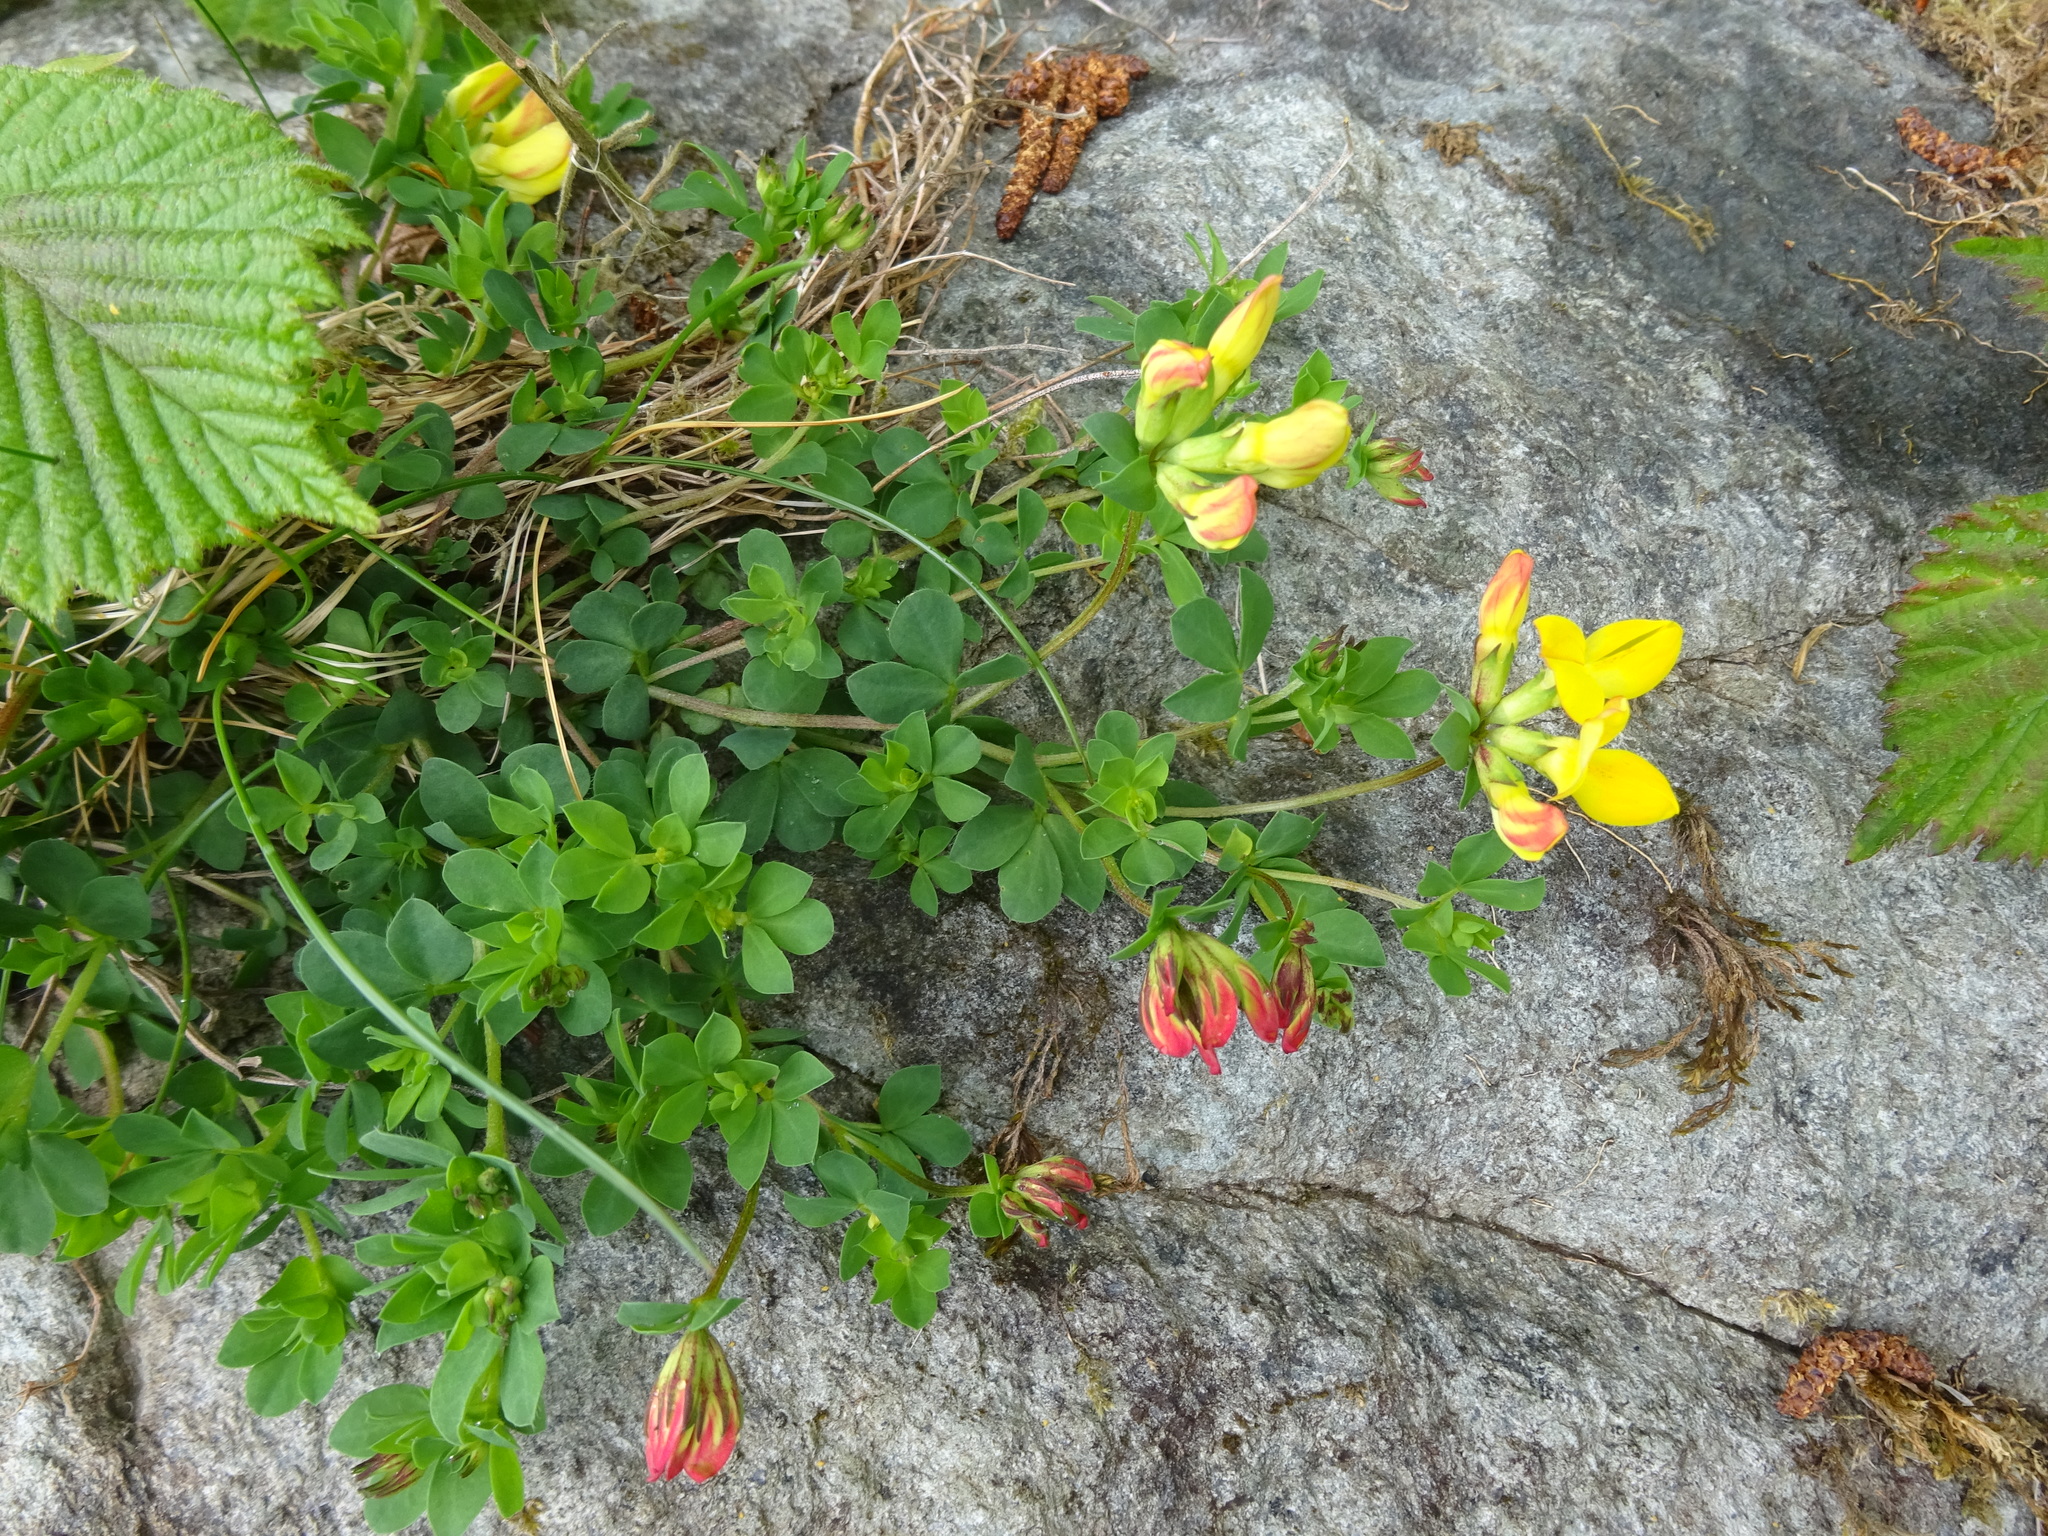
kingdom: Plantae
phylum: Tracheophyta
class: Magnoliopsida
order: Fabales
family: Fabaceae
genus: Lotus
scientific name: Lotus corniculatus
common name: Common bird's-foot-trefoil
